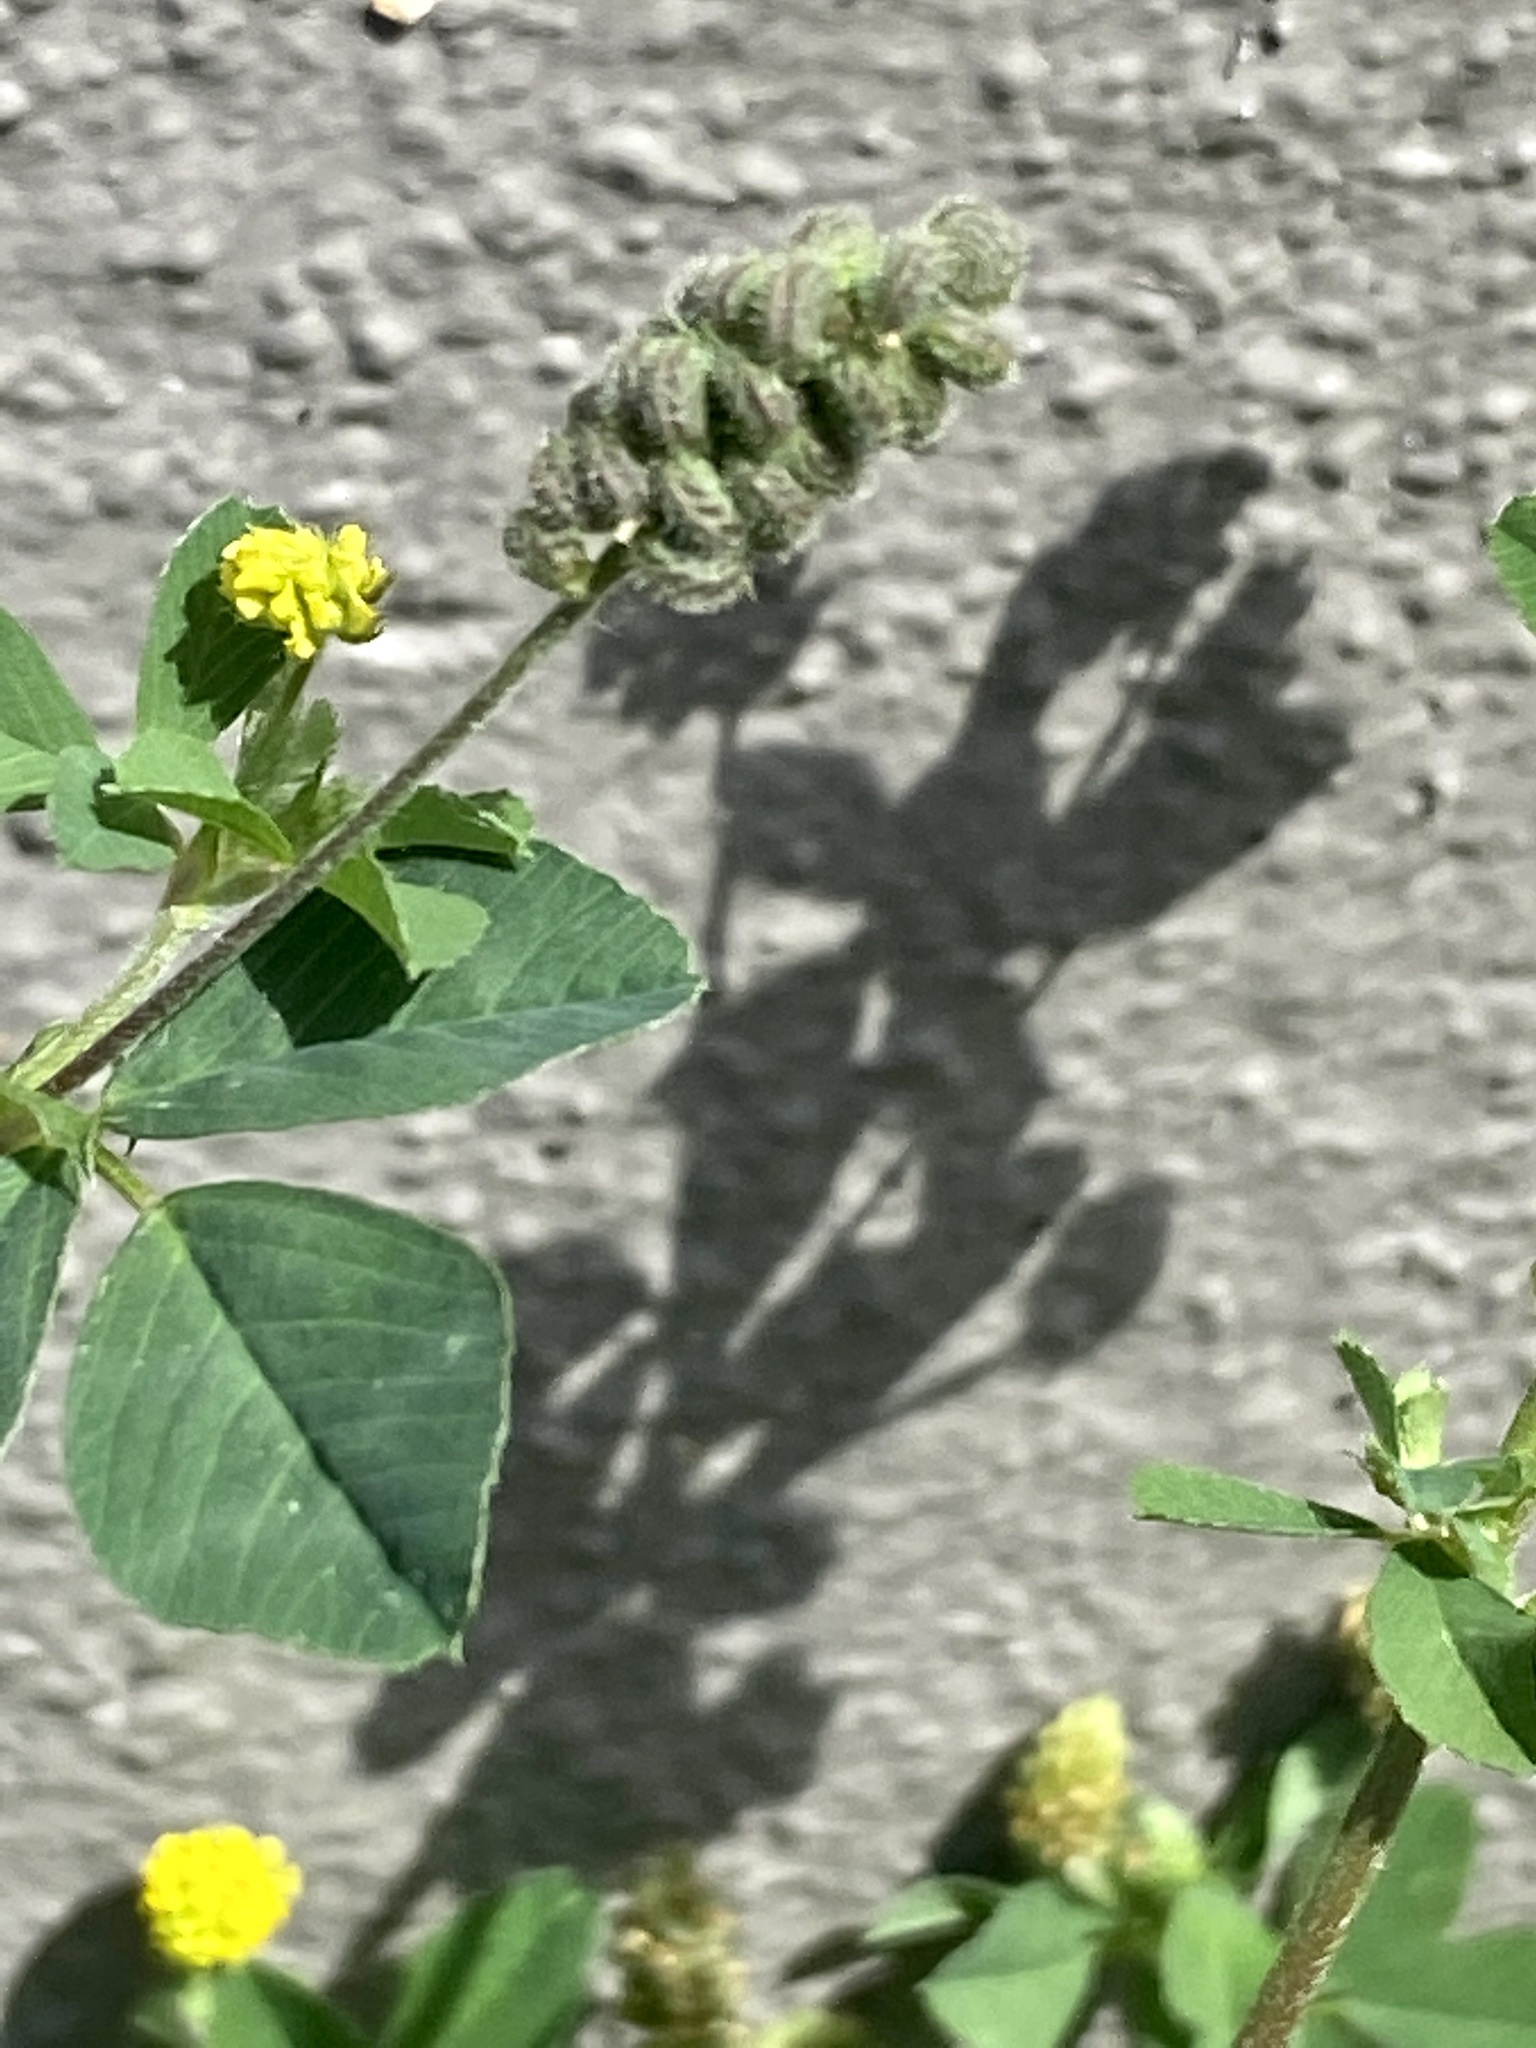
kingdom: Plantae
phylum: Tracheophyta
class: Magnoliopsida
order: Fabales
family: Fabaceae
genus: Medicago
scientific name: Medicago lupulina
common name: Black medick
